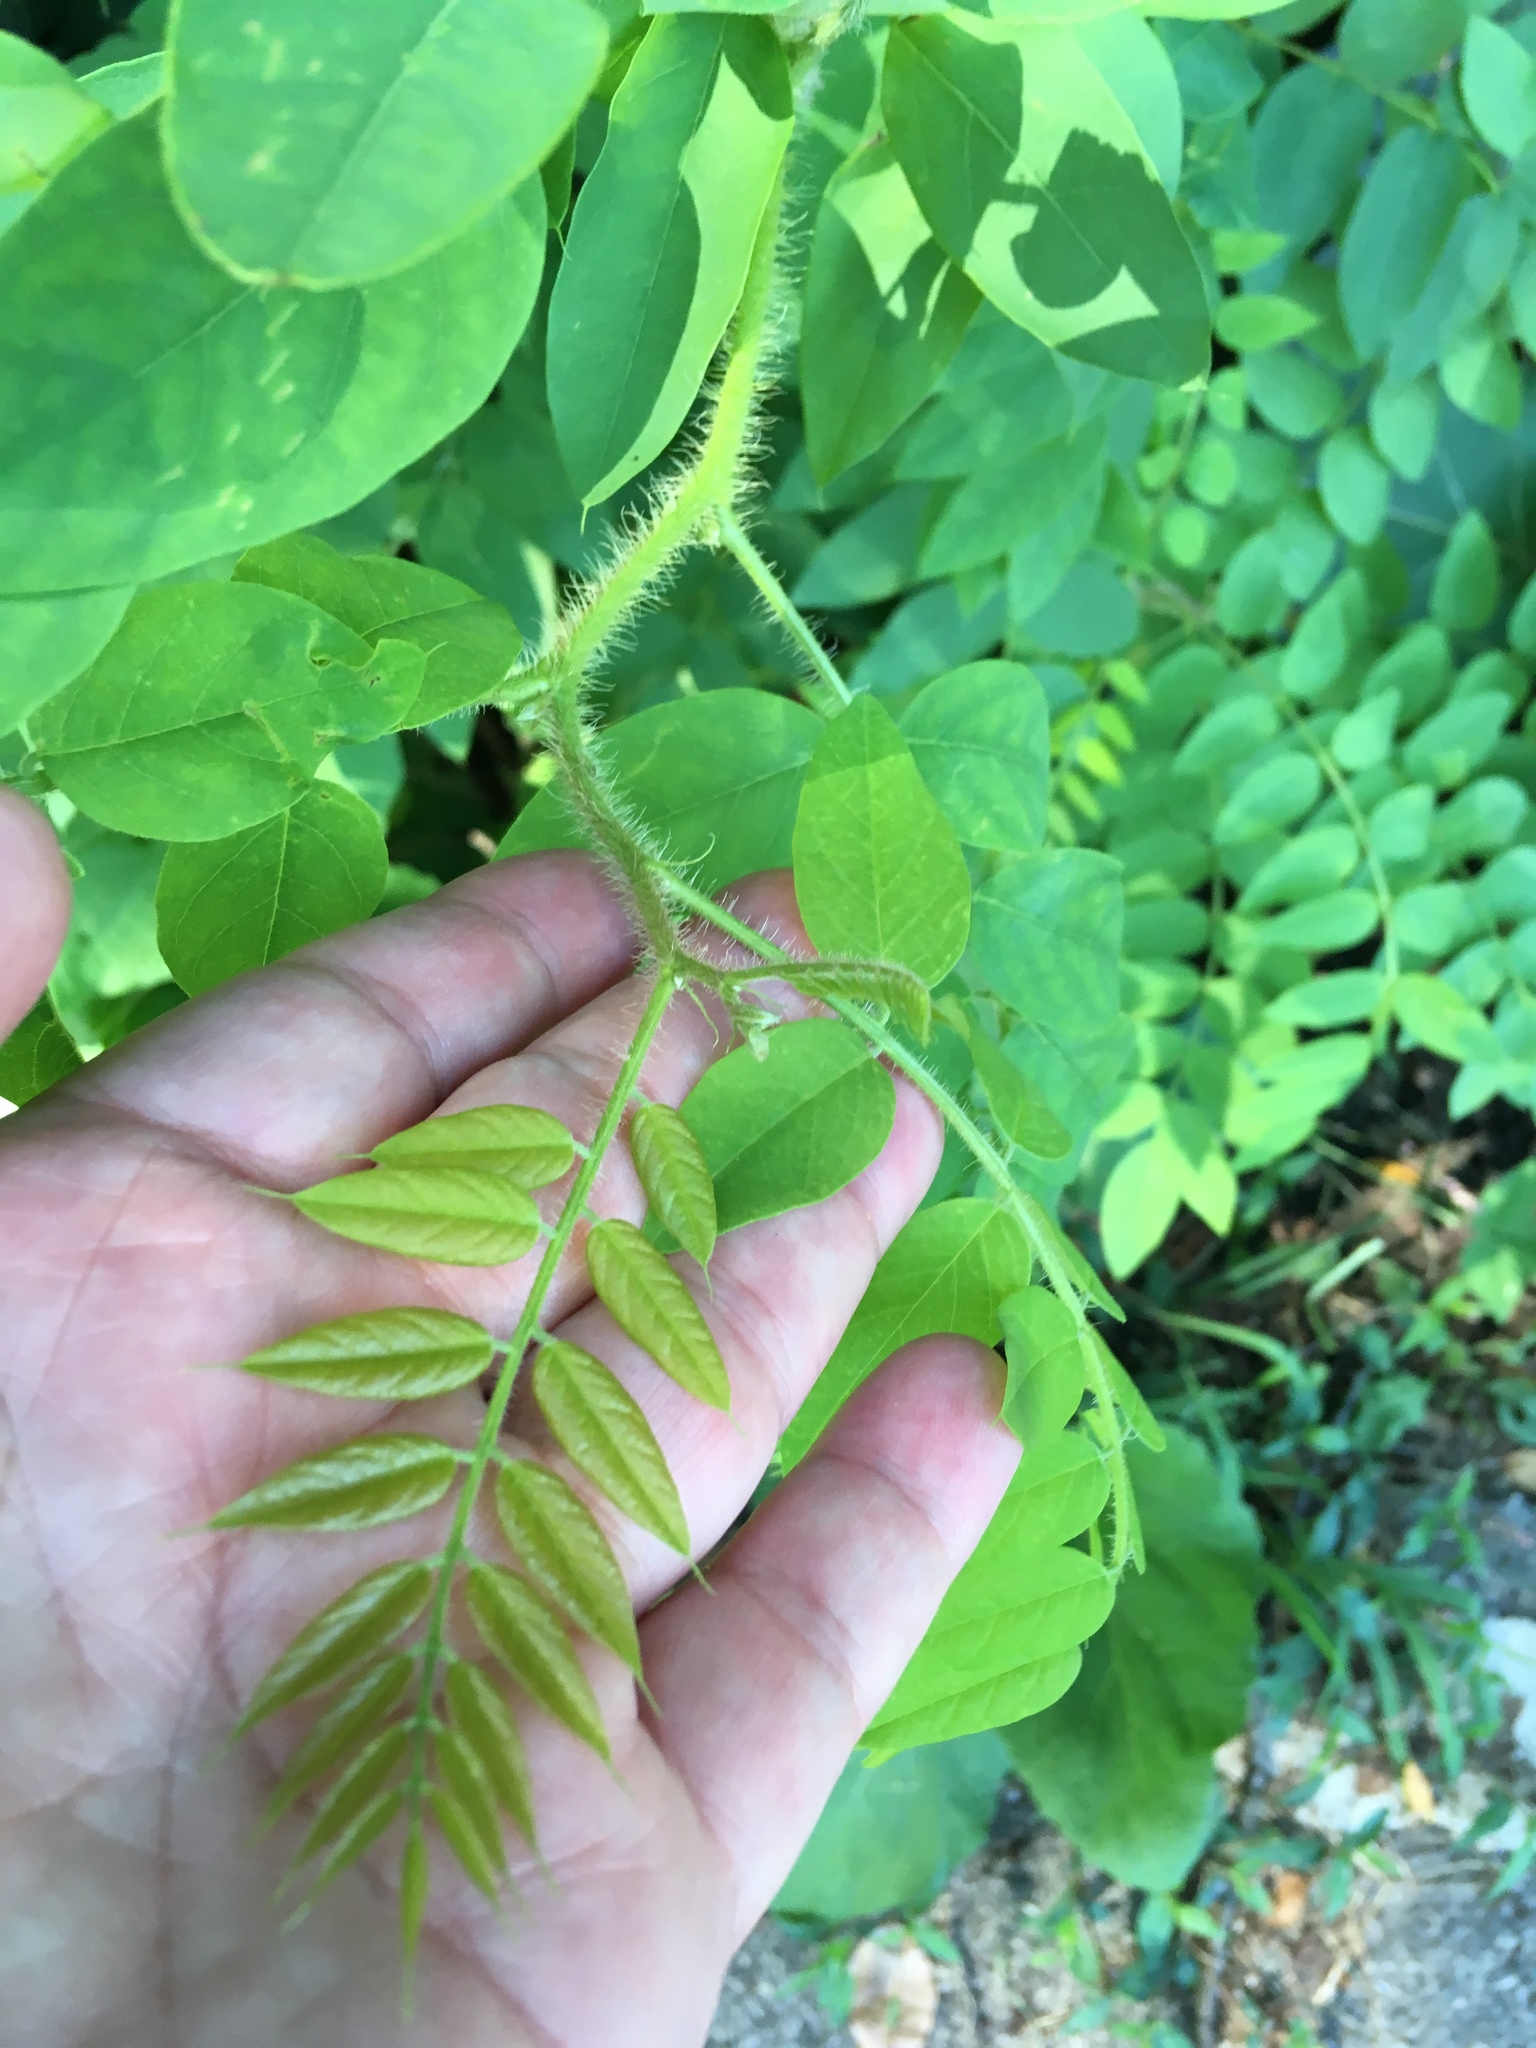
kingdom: Plantae
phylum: Tracheophyta
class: Magnoliopsida
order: Fabales
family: Fabaceae
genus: Robinia
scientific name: Robinia hispida
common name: Bristly locust
